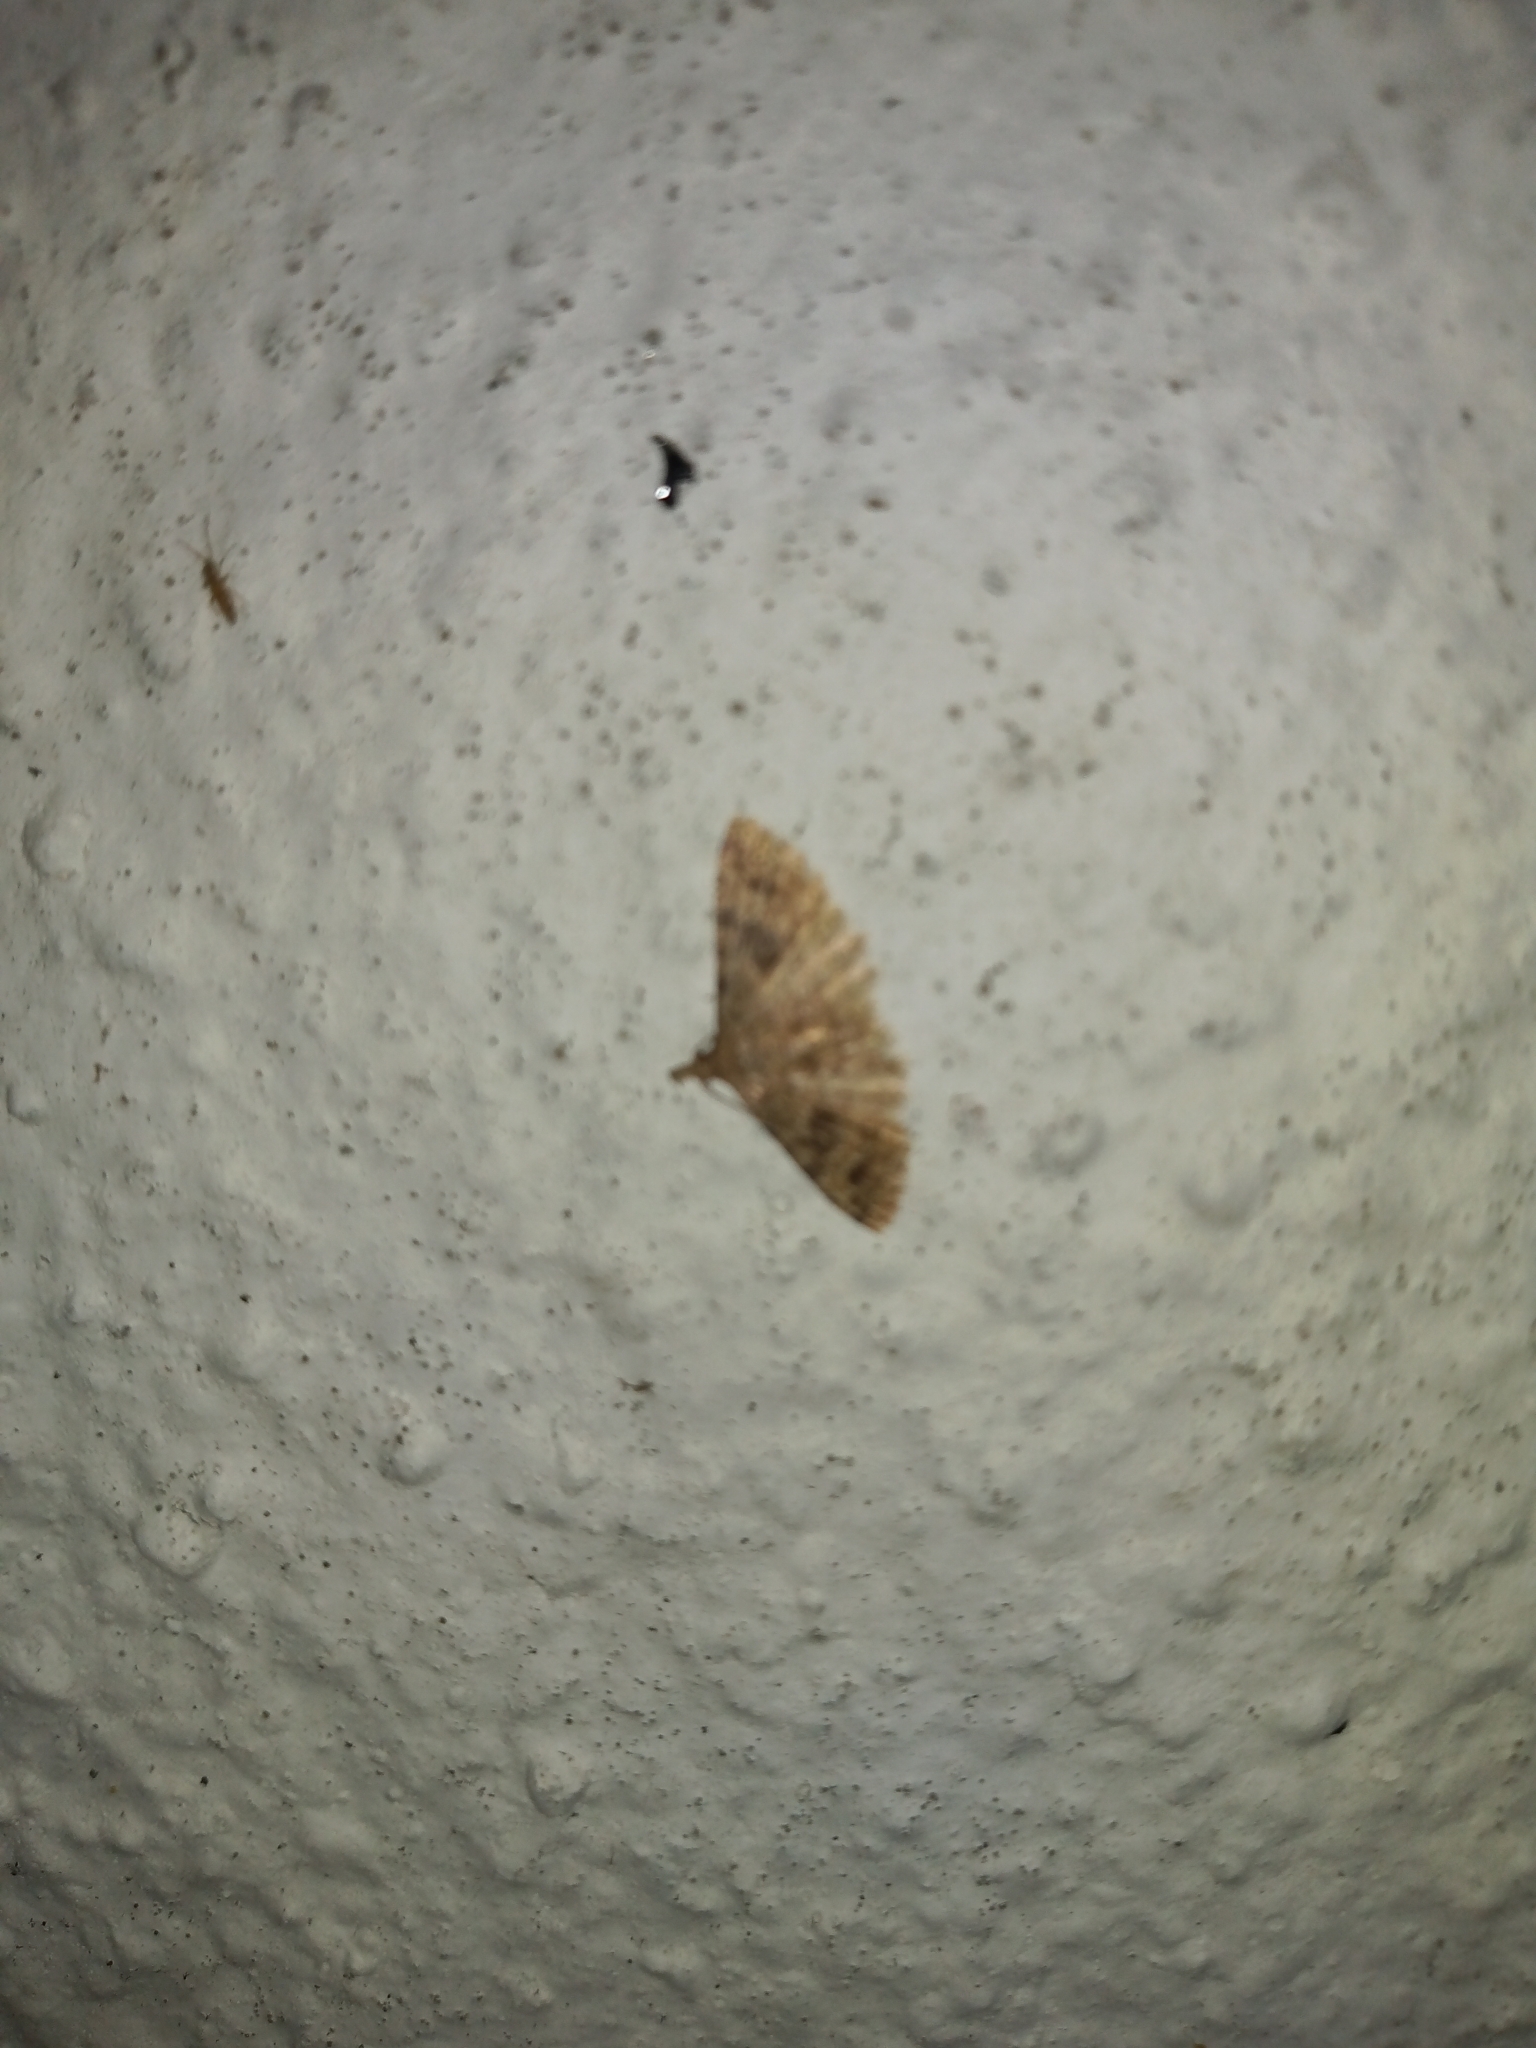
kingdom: Animalia
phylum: Arthropoda
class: Insecta
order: Lepidoptera
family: Alucitidae
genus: Alucita
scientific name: Alucita hexadactyla
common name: Twenty-plume moth
